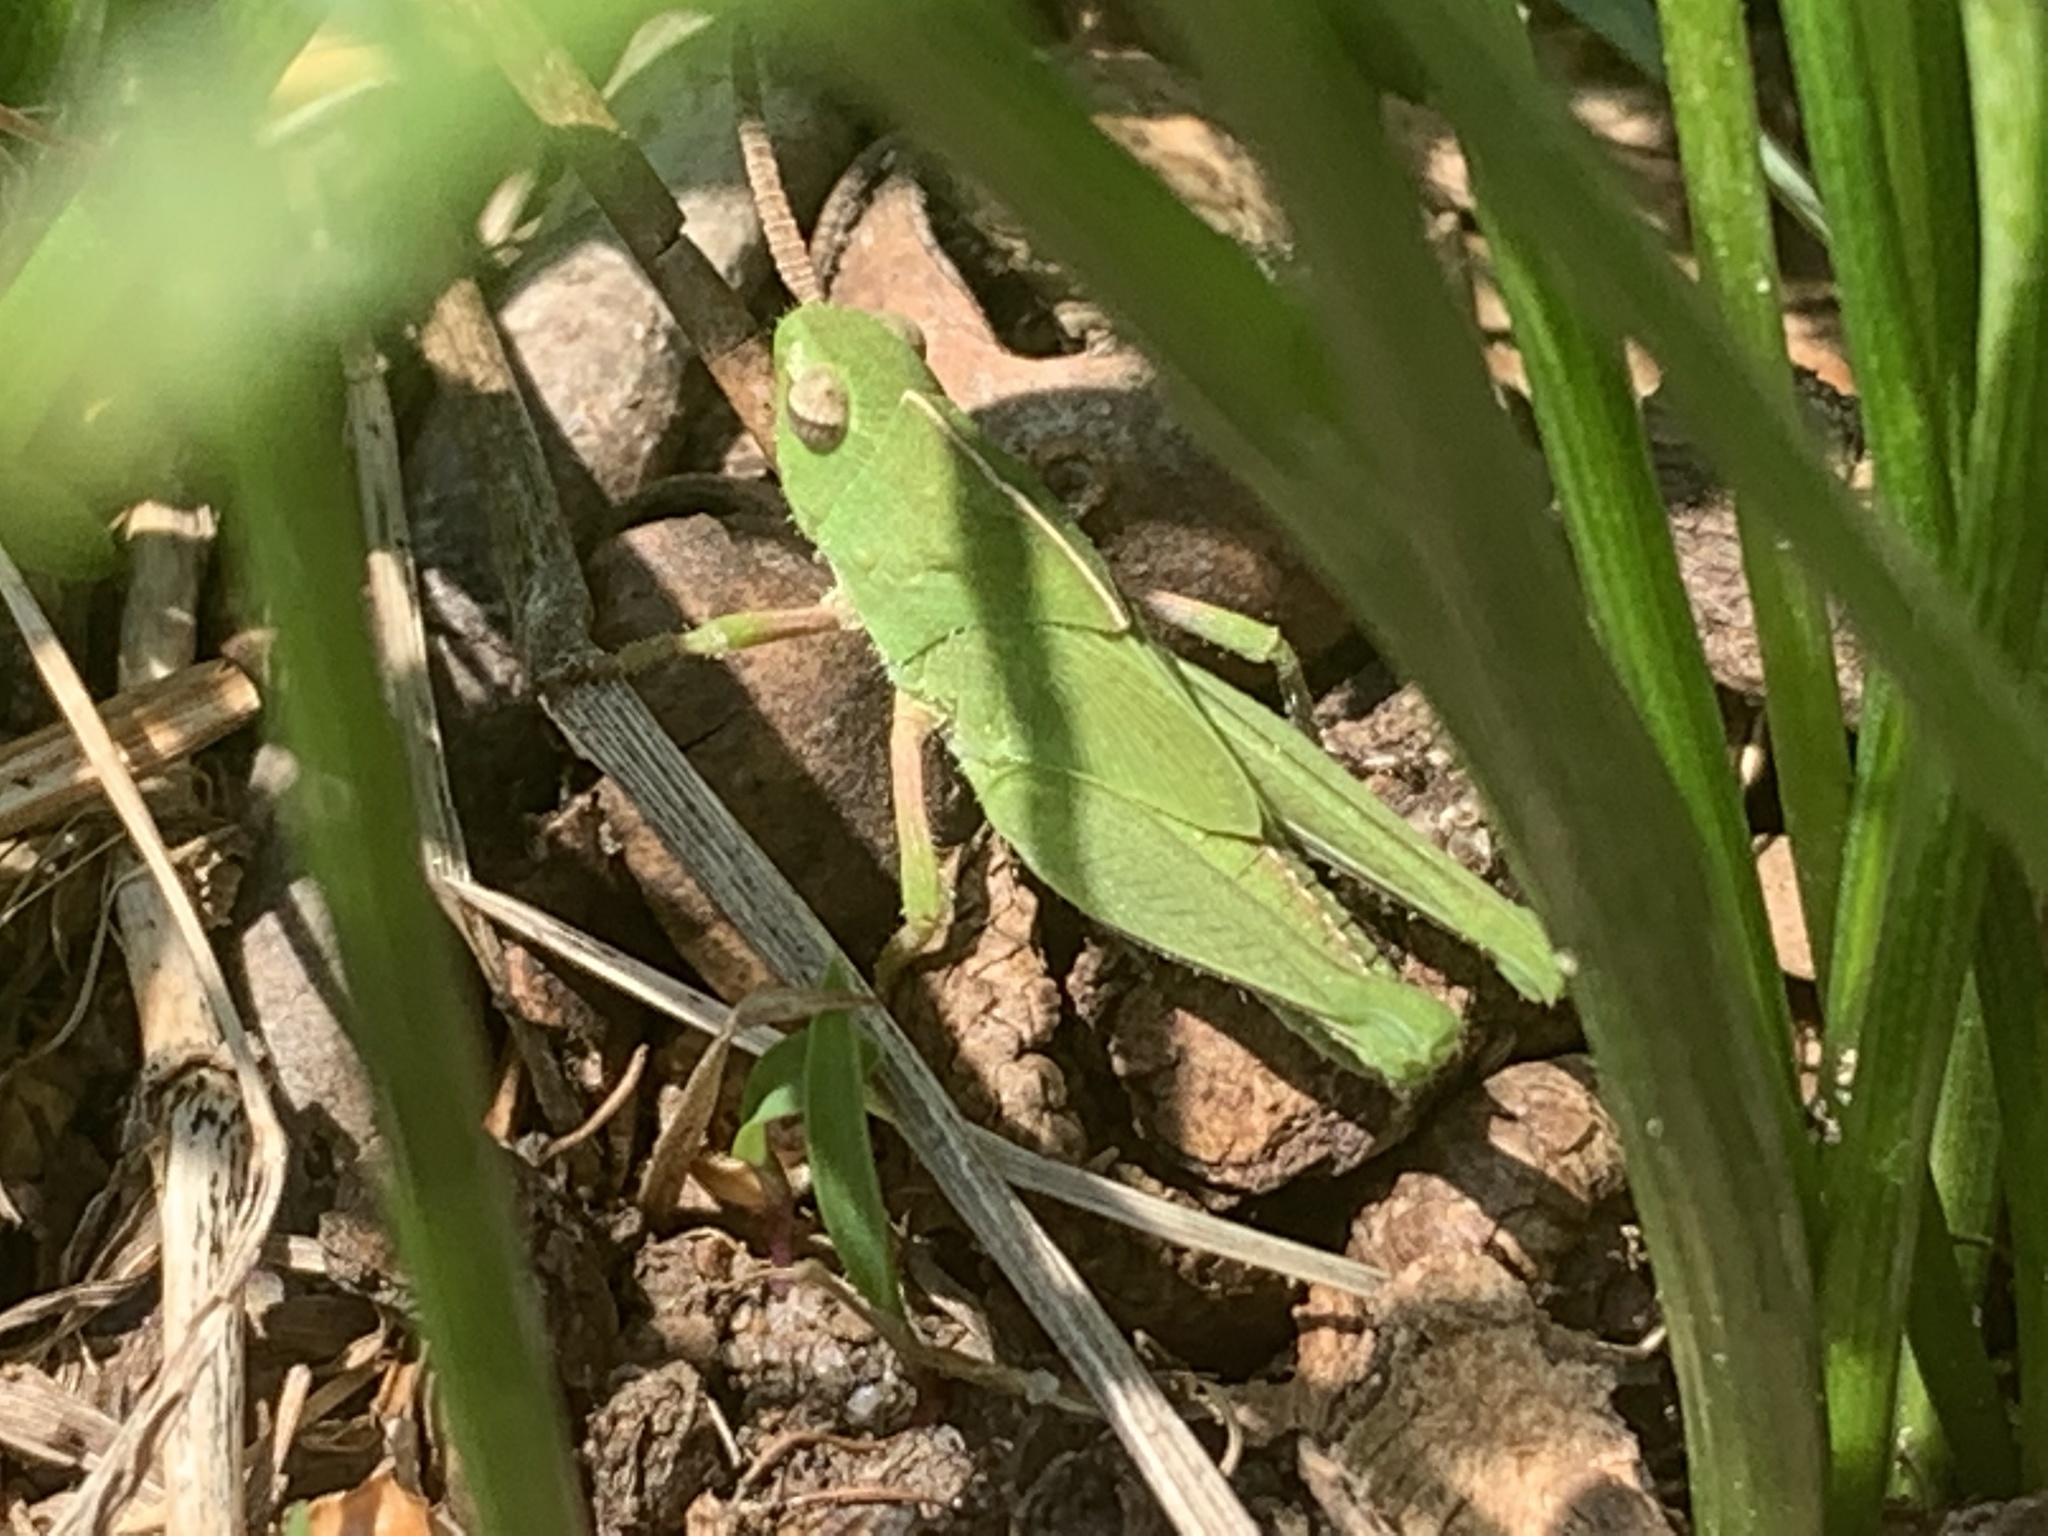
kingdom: Animalia
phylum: Arthropoda
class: Insecta
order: Orthoptera
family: Acrididae
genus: Chortophaga
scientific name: Chortophaga viridifasciata
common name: Green-striped grasshopper
